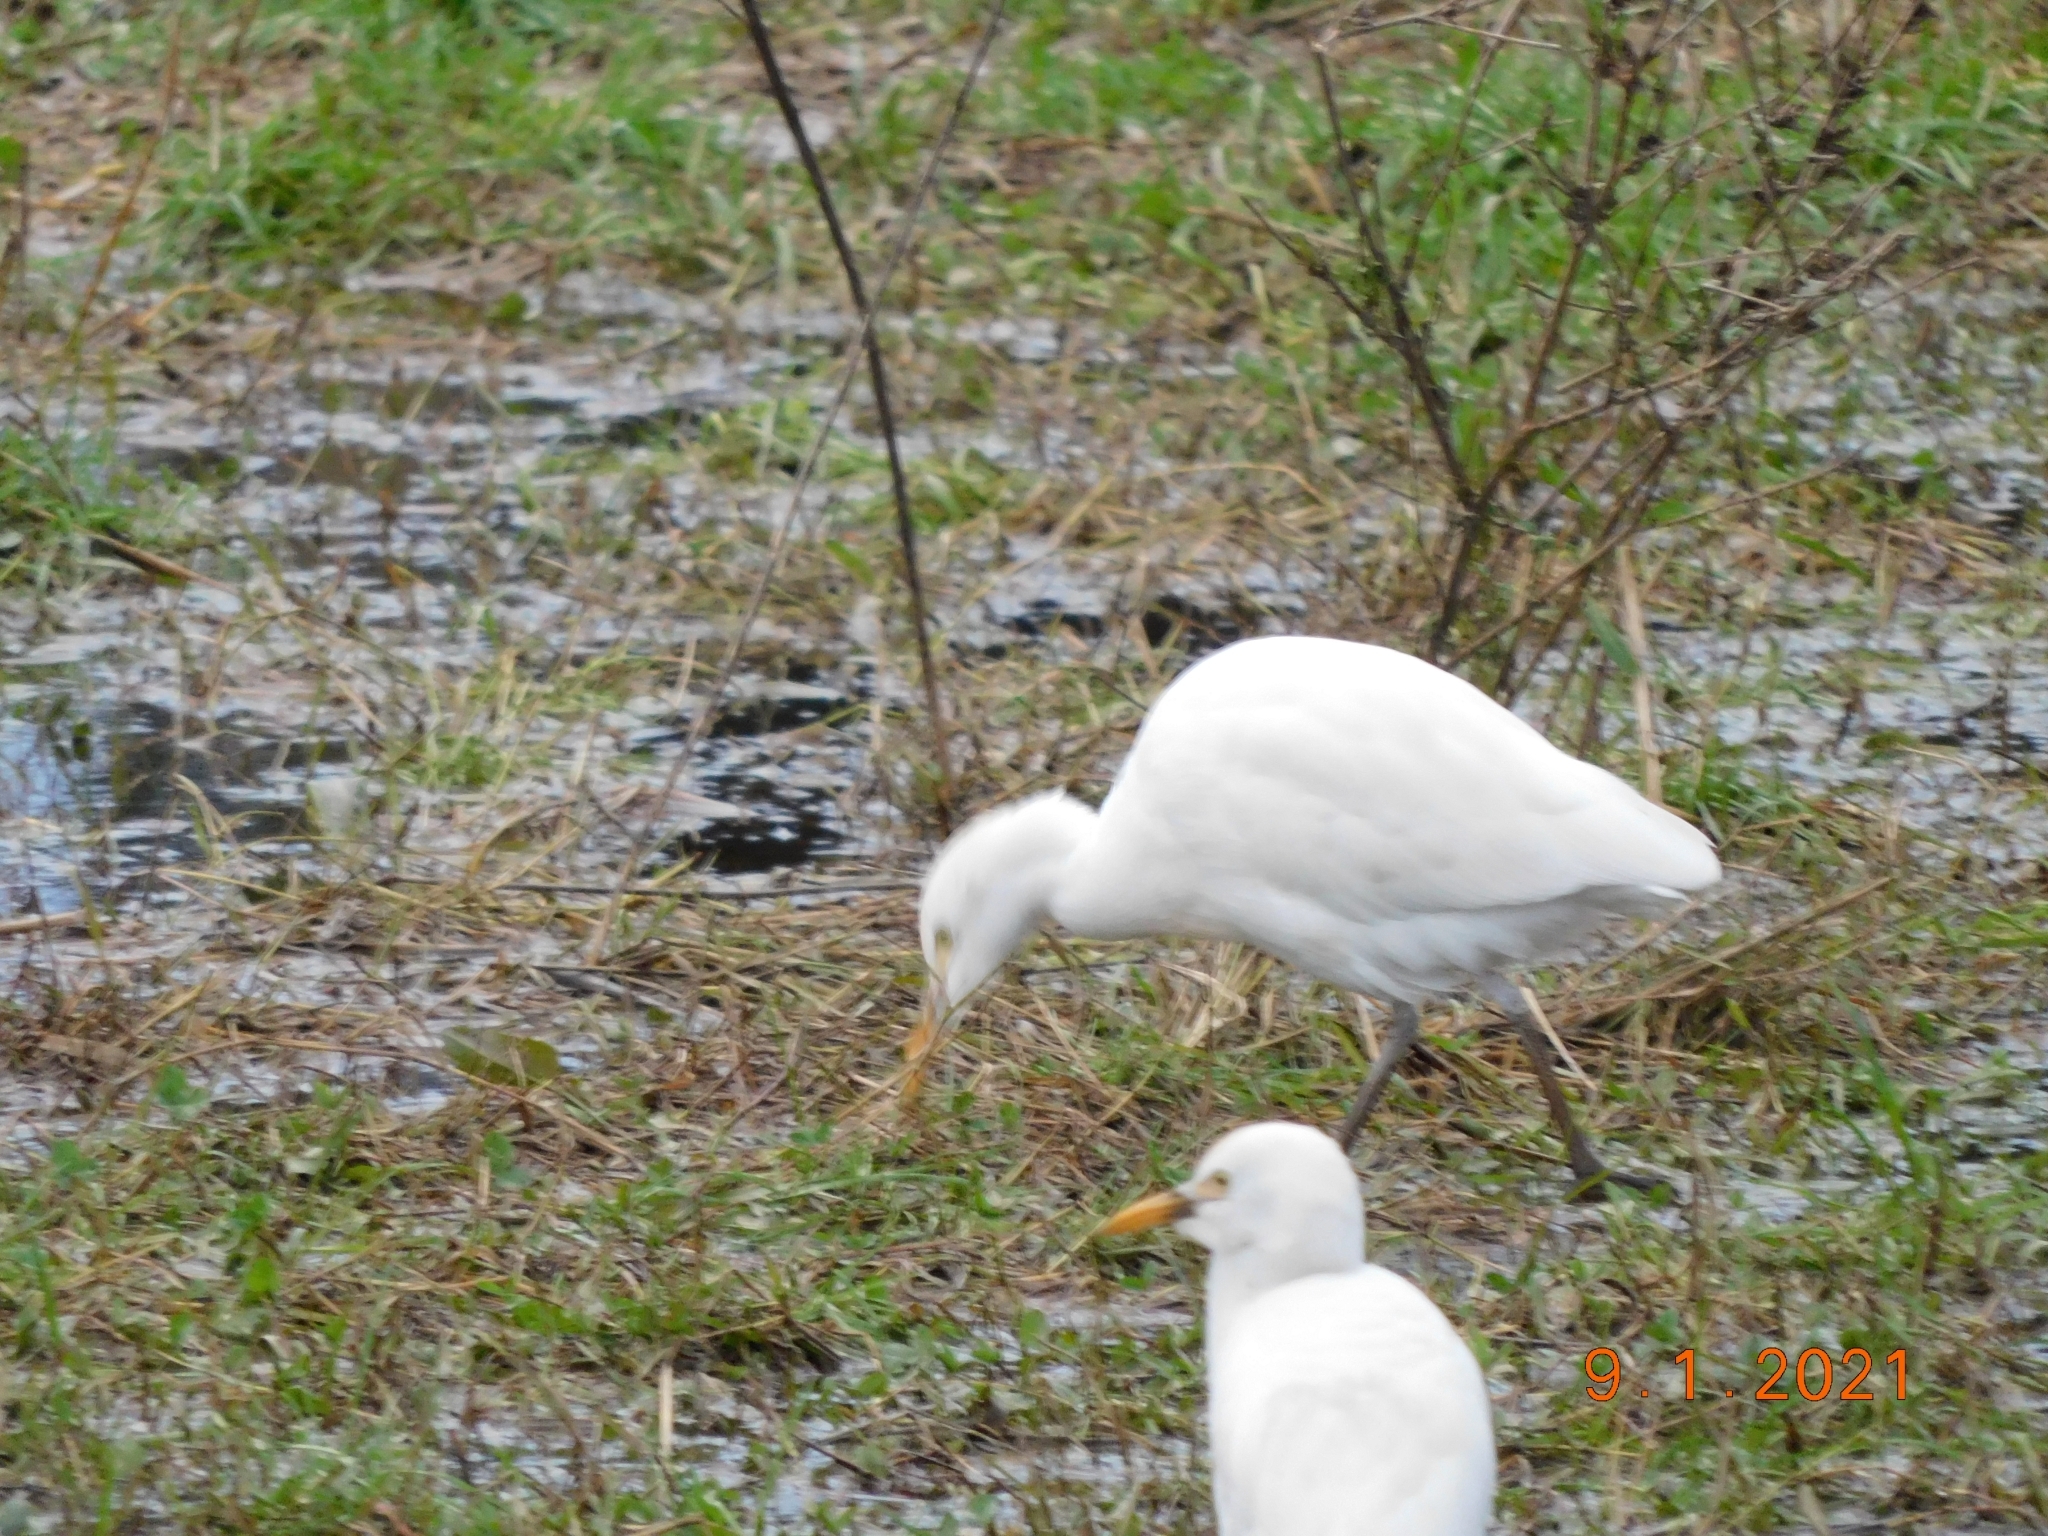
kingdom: Animalia
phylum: Chordata
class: Aves
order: Pelecaniformes
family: Ardeidae
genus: Bubulcus
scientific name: Bubulcus ibis
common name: Cattle egret
